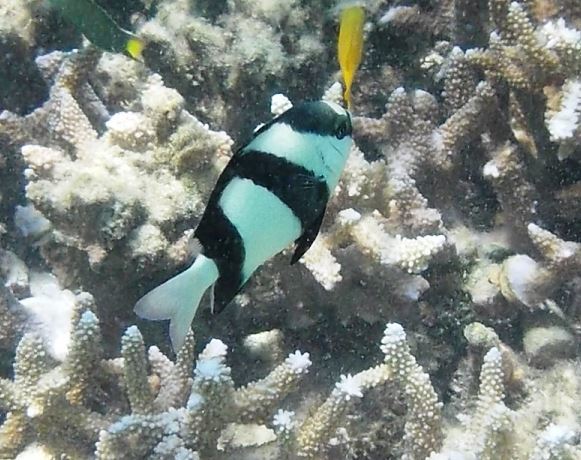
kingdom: Animalia
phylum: Chordata
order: Perciformes
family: Pomacentridae
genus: Dascyllus
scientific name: Dascyllus aruanus
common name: Humbug dascyllus
